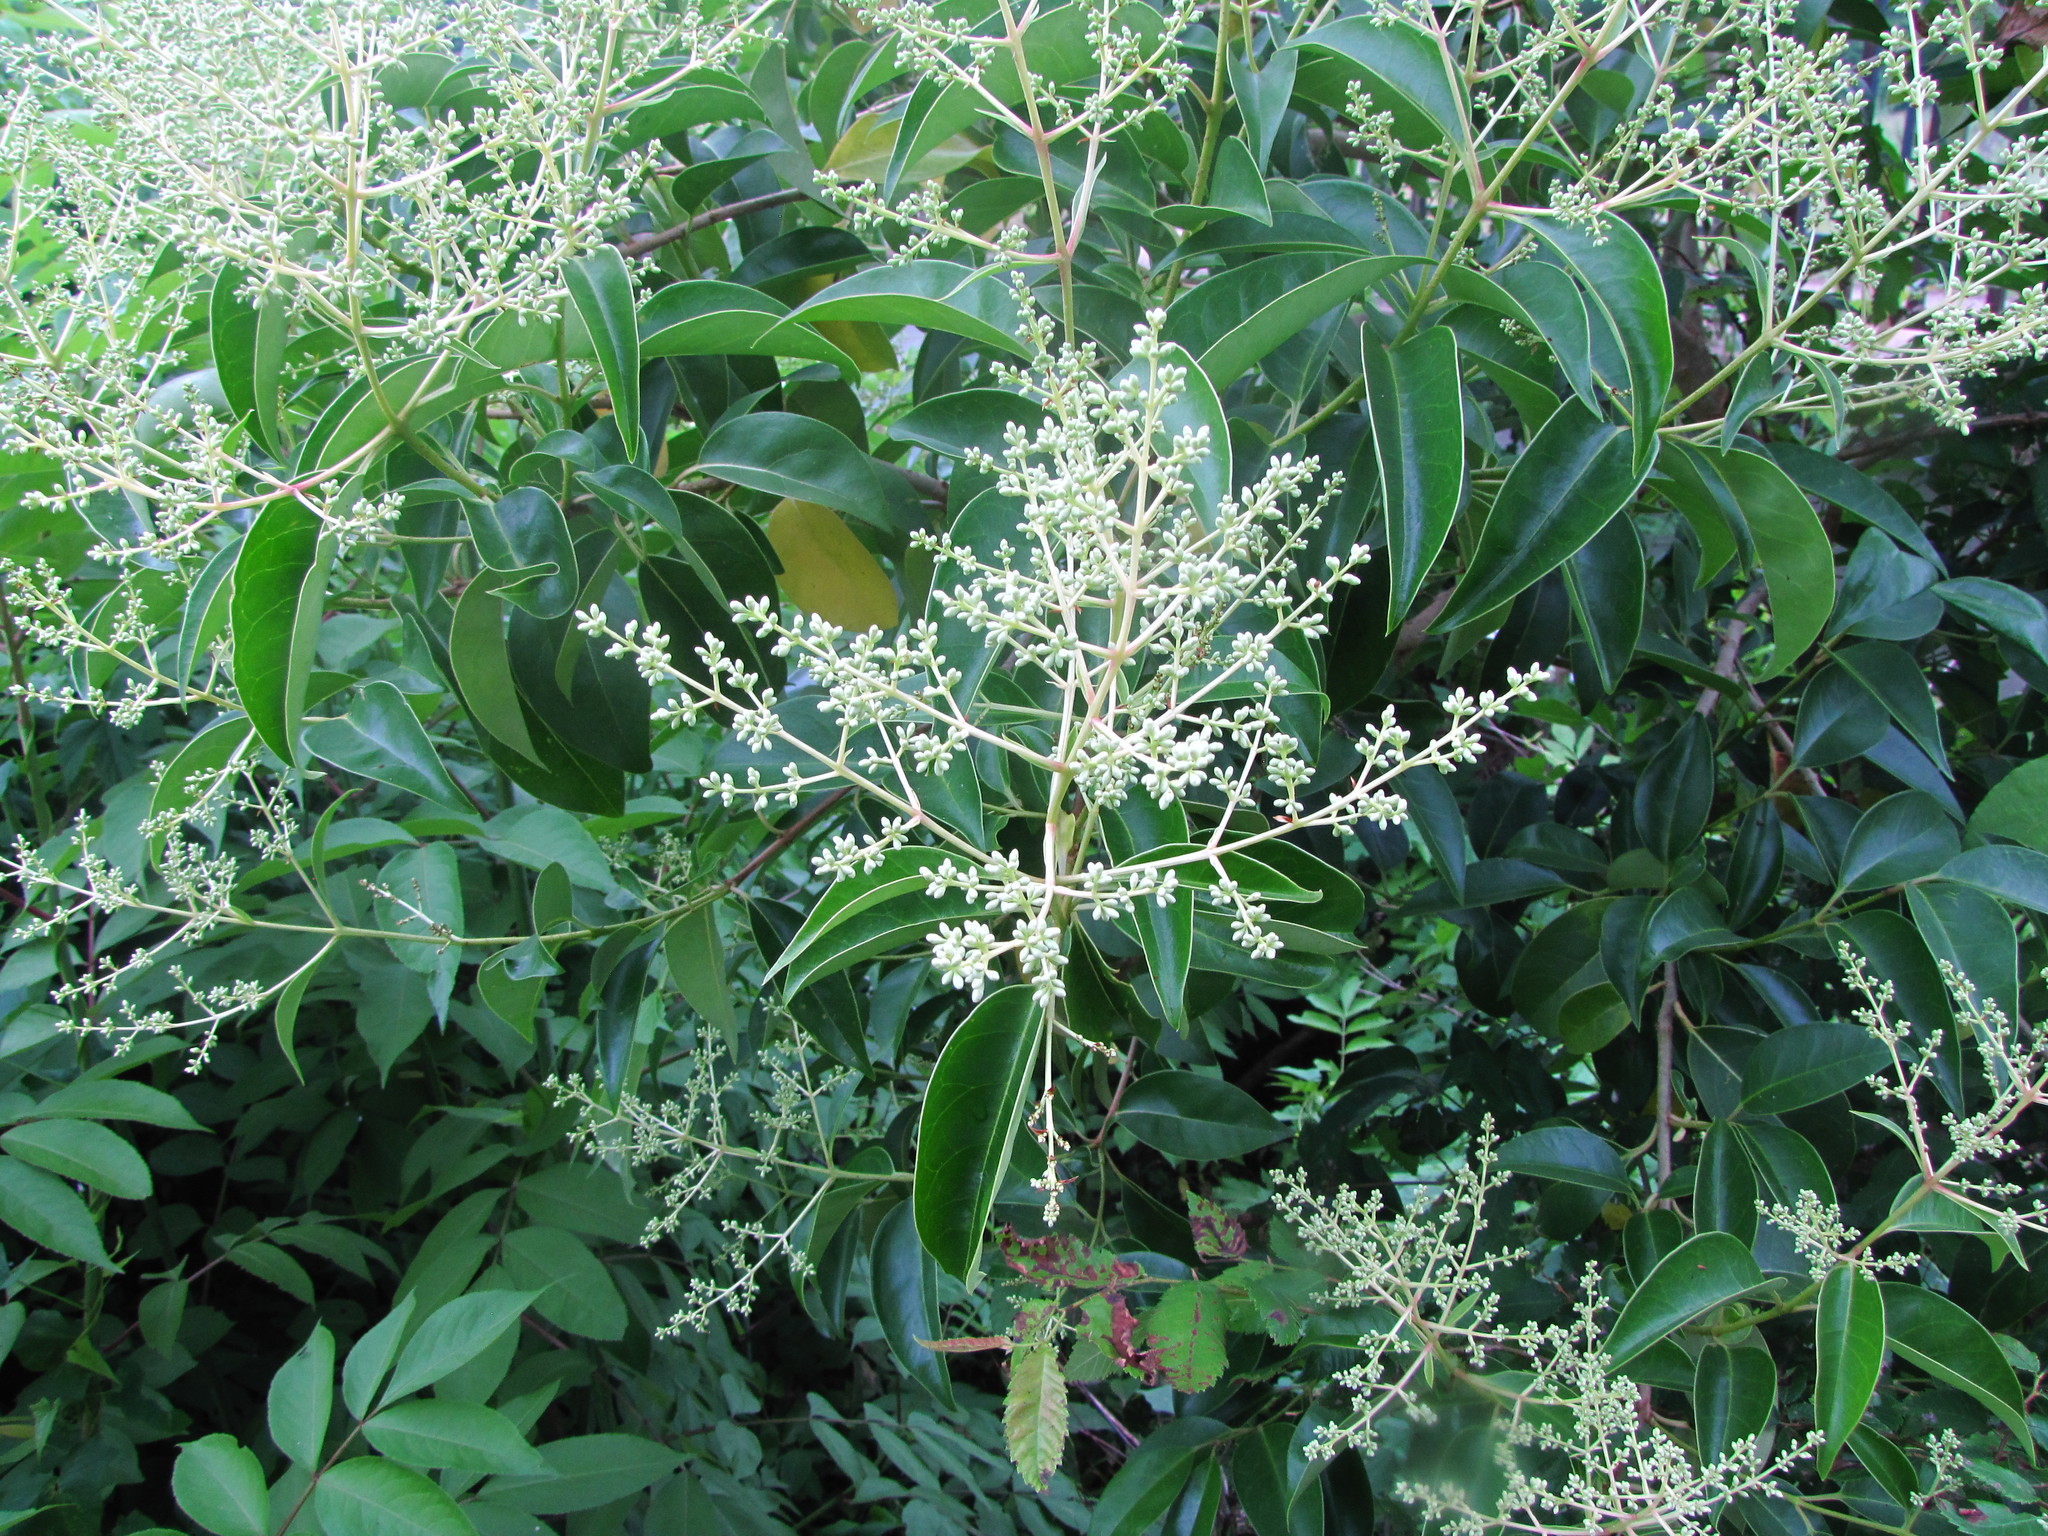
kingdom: Plantae
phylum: Tracheophyta
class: Magnoliopsida
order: Lamiales
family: Oleaceae
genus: Ligustrum
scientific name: Ligustrum lucidum
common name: Glossy privet
